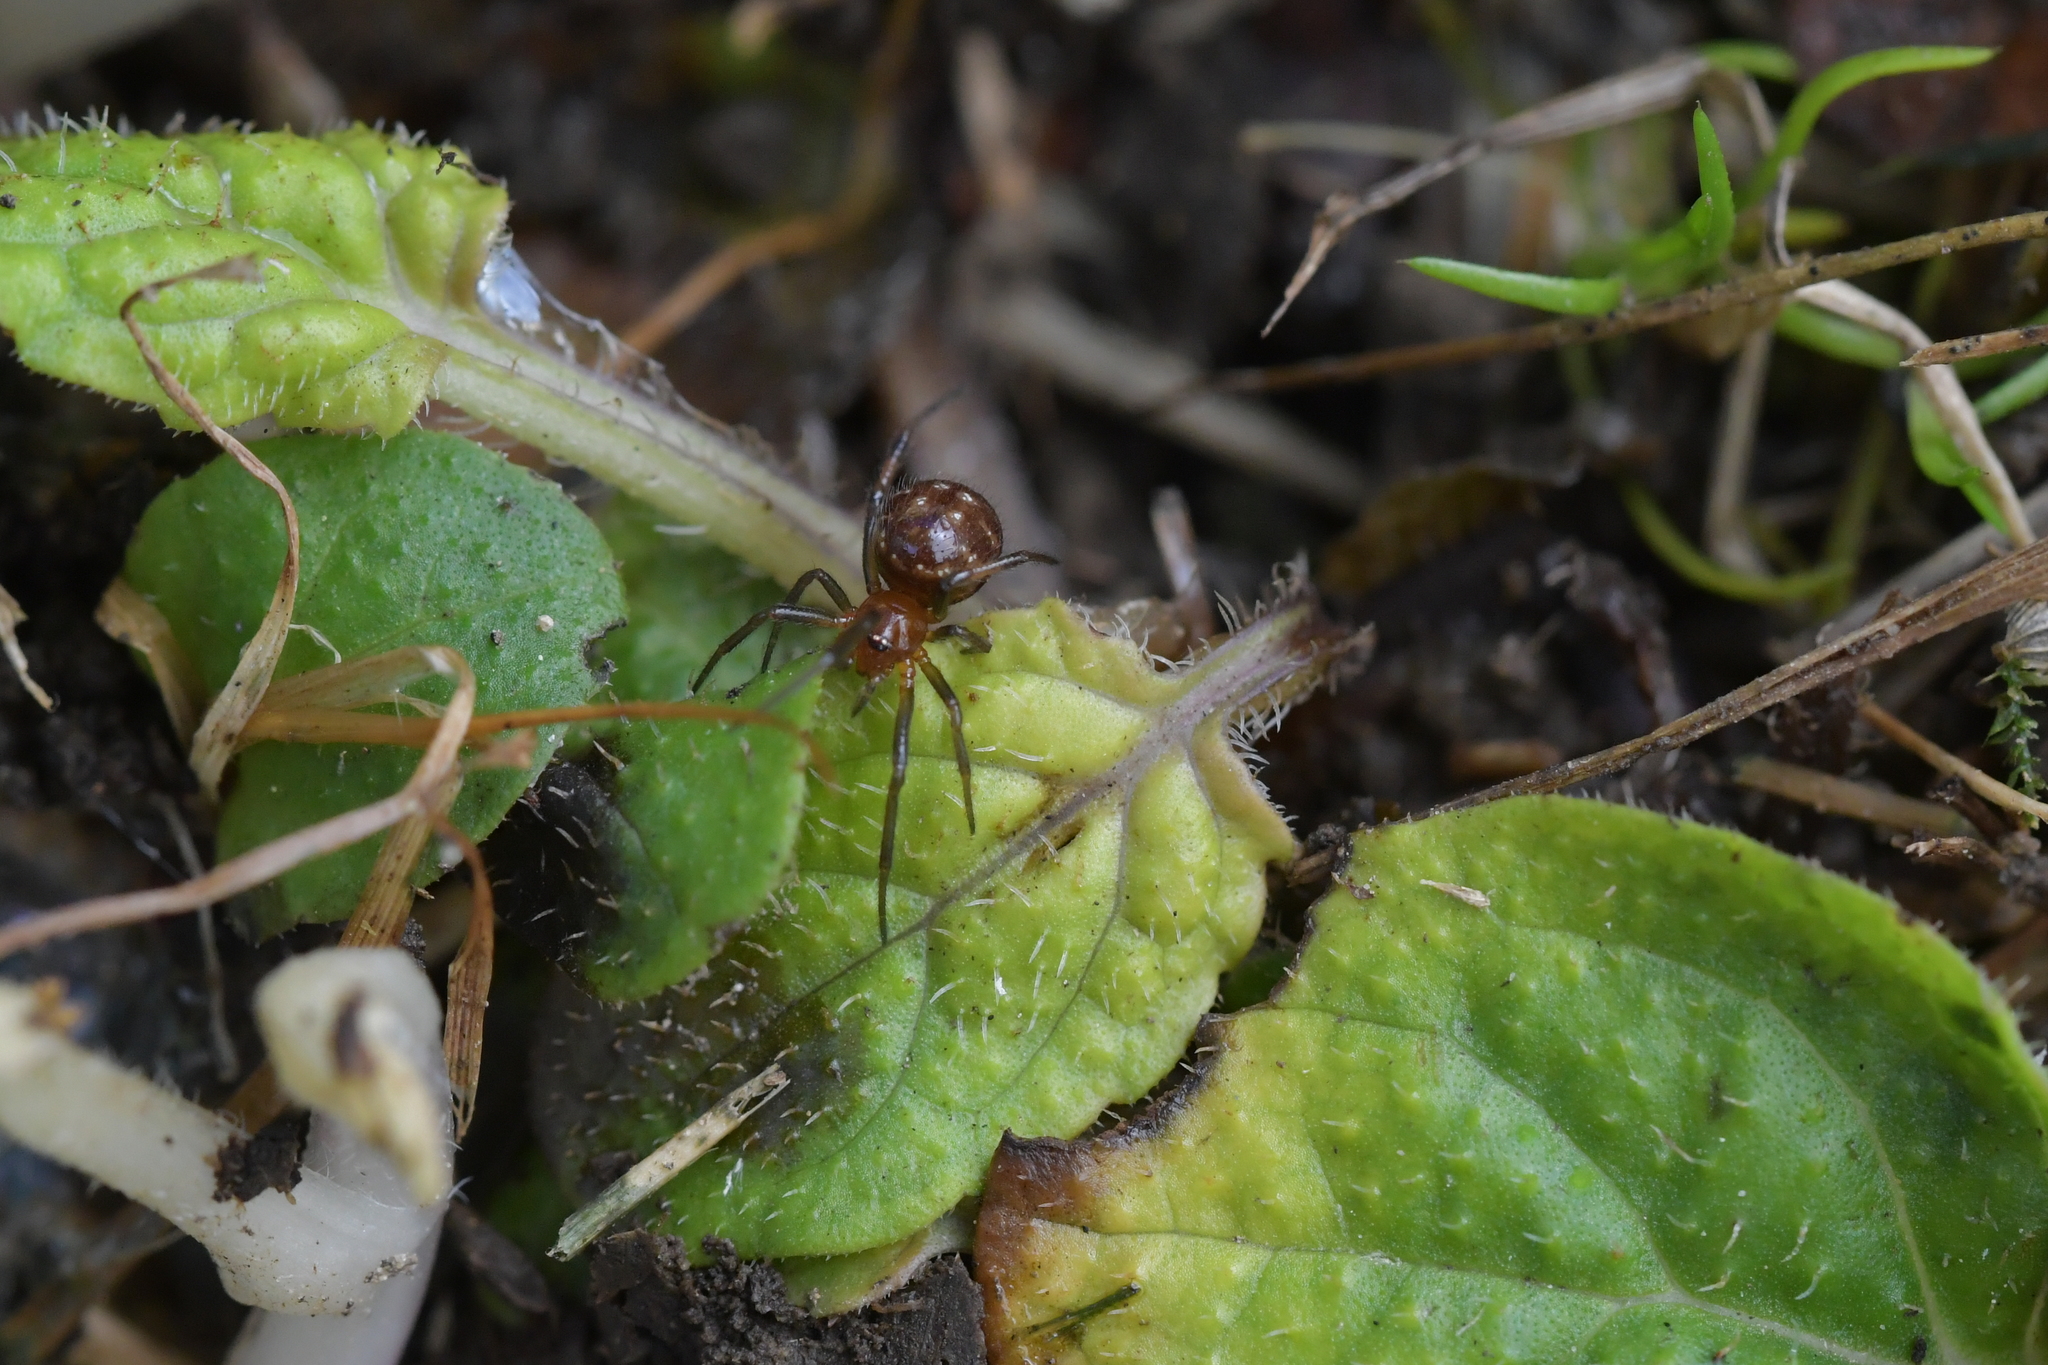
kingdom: Animalia
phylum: Arthropoda
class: Arachnida
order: Araneae
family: Theridiidae
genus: Steatoda
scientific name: Steatoda capensis
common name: Cobweb weaver
